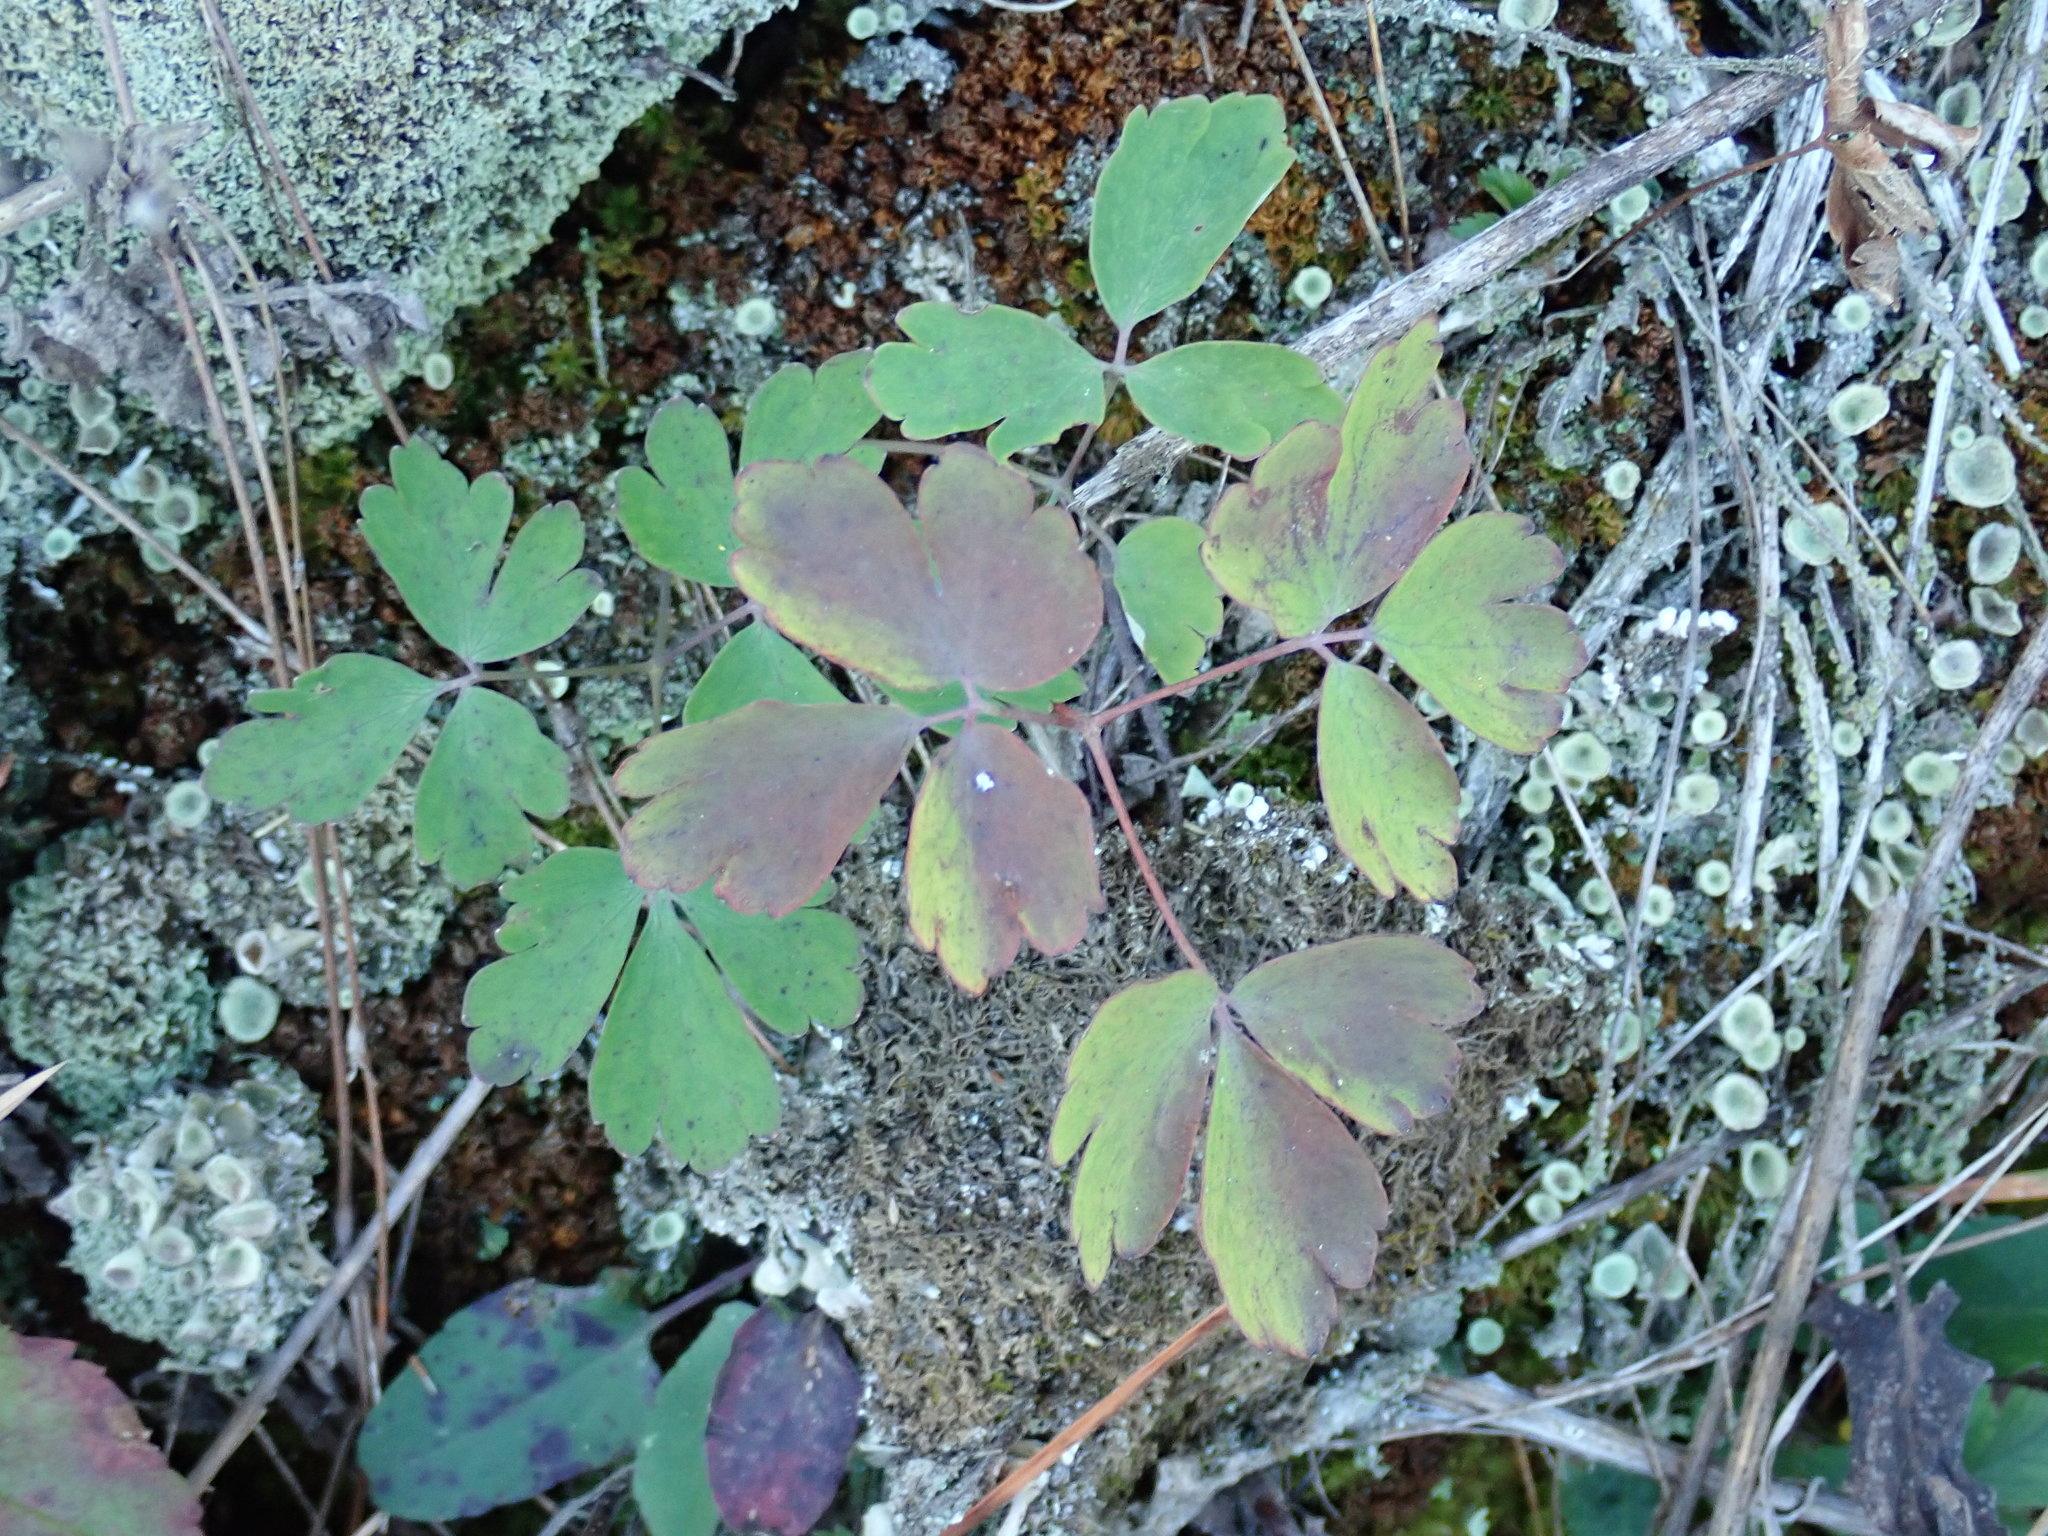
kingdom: Plantae
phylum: Tracheophyta
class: Magnoliopsida
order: Ranunculales
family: Ranunculaceae
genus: Aquilegia
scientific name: Aquilegia canadensis
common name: American columbine
